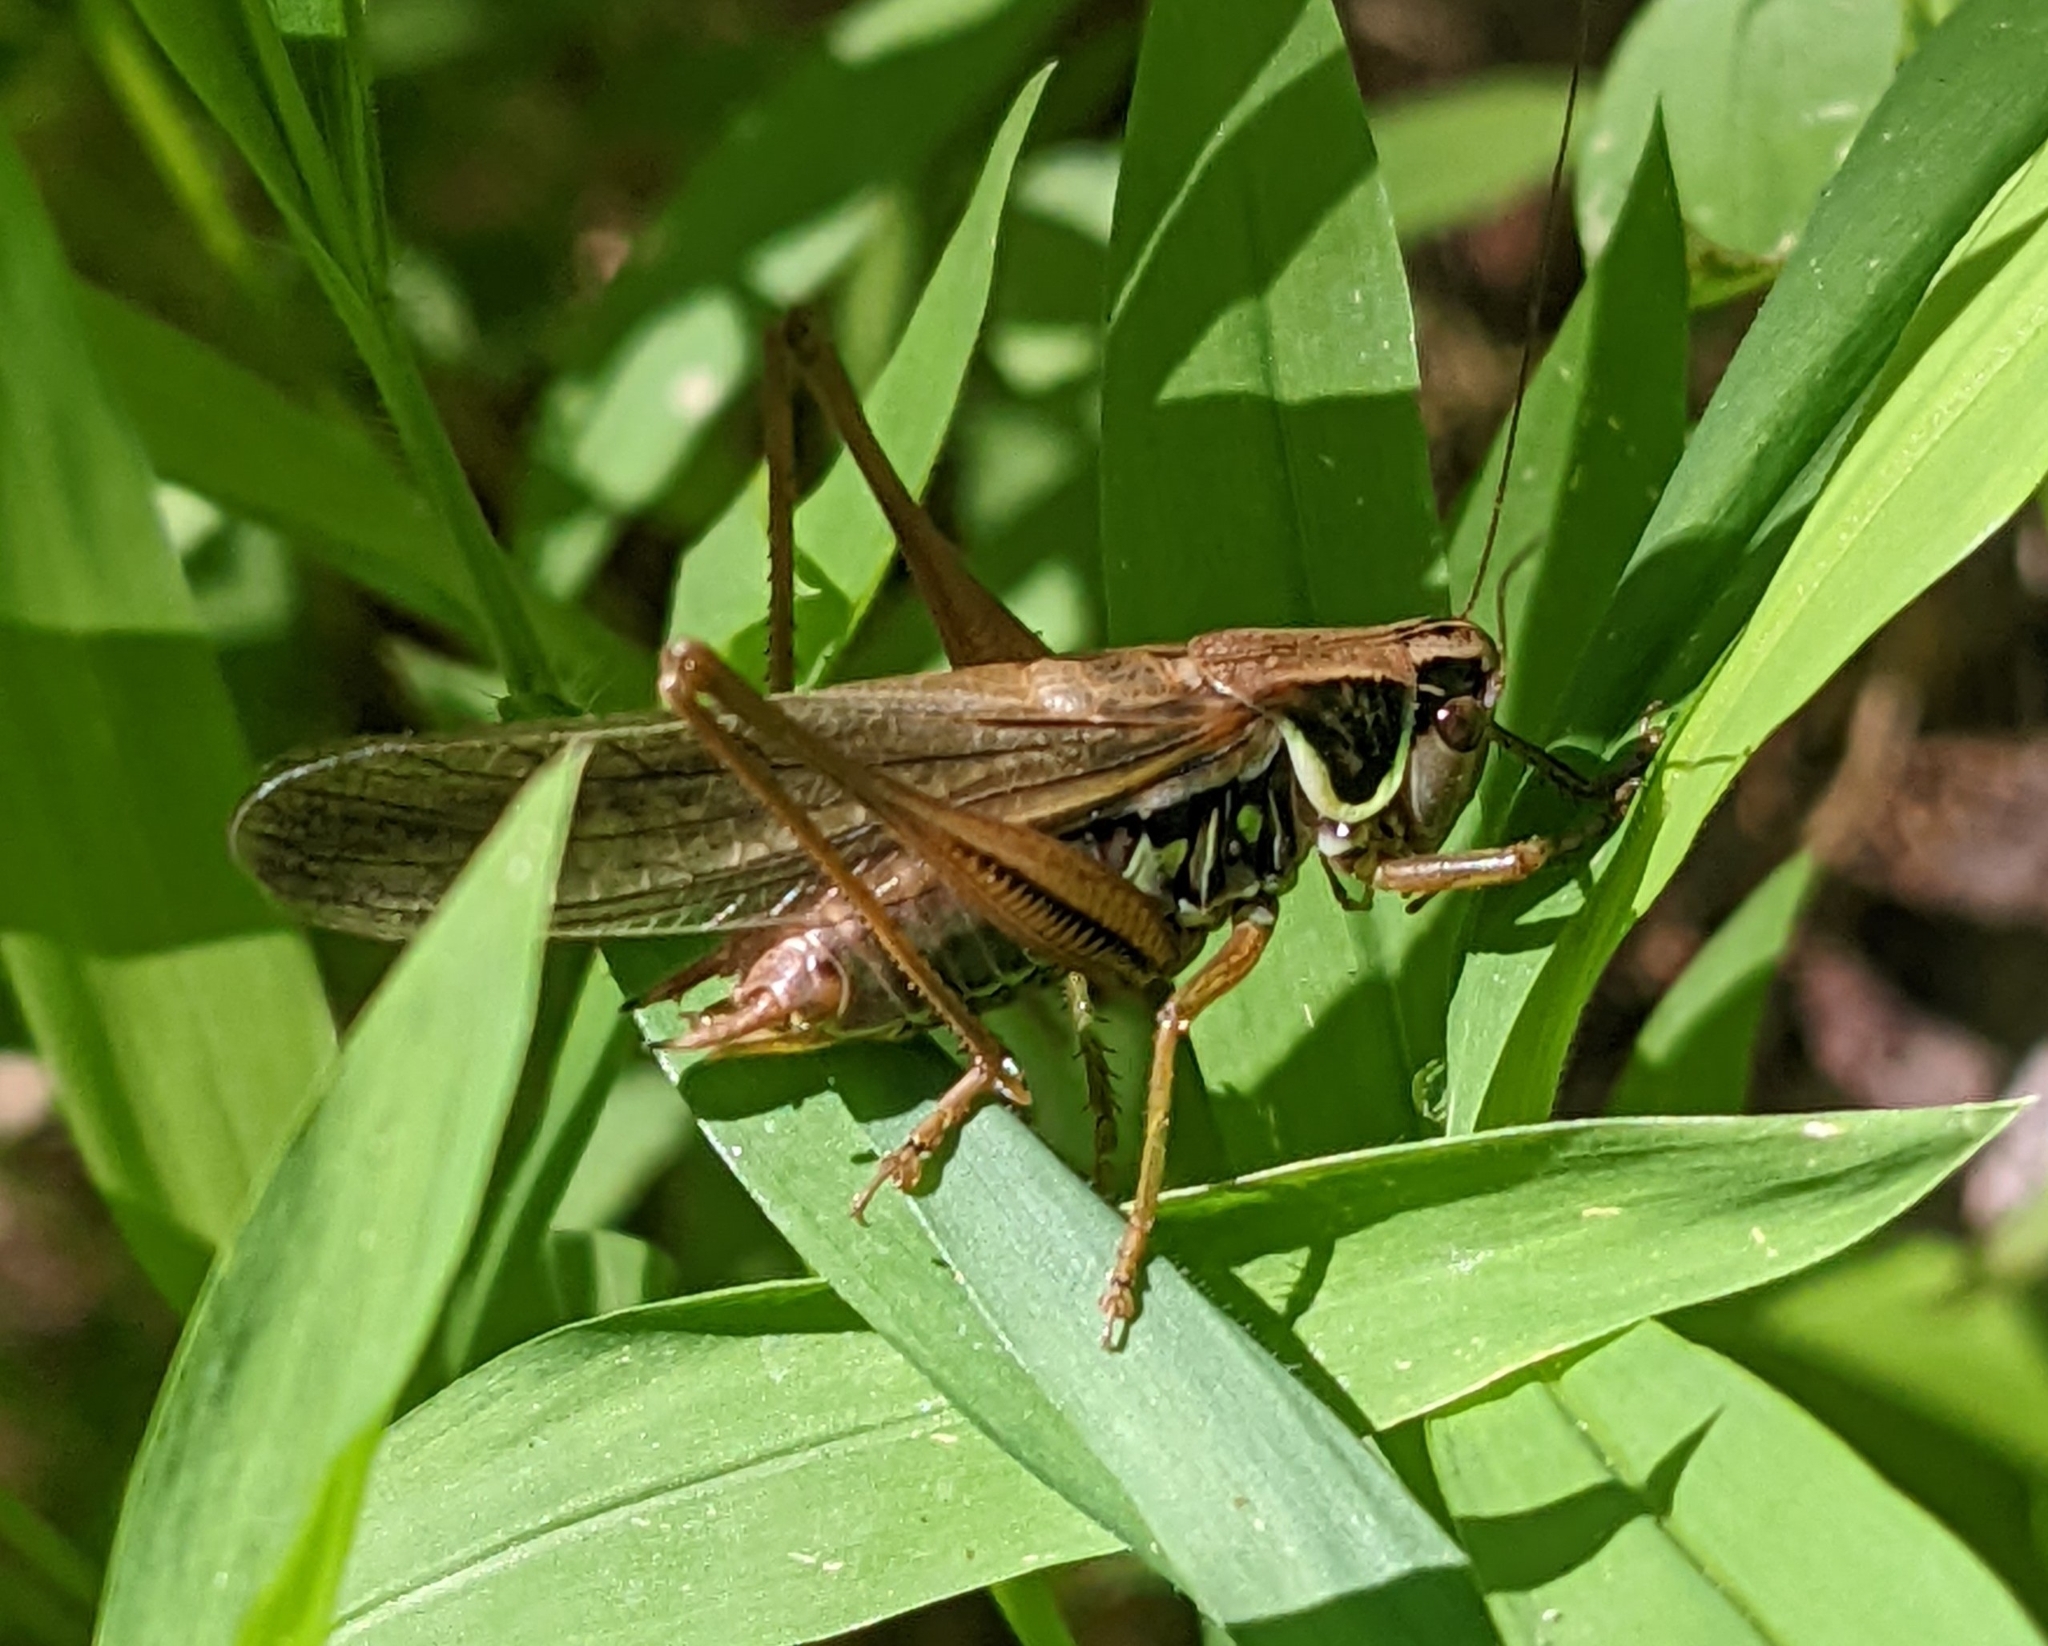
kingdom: Animalia
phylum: Arthropoda
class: Insecta
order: Orthoptera
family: Tettigoniidae
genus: Roeseliana
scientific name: Roeseliana roeselii
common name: Roesel's bush cricket
